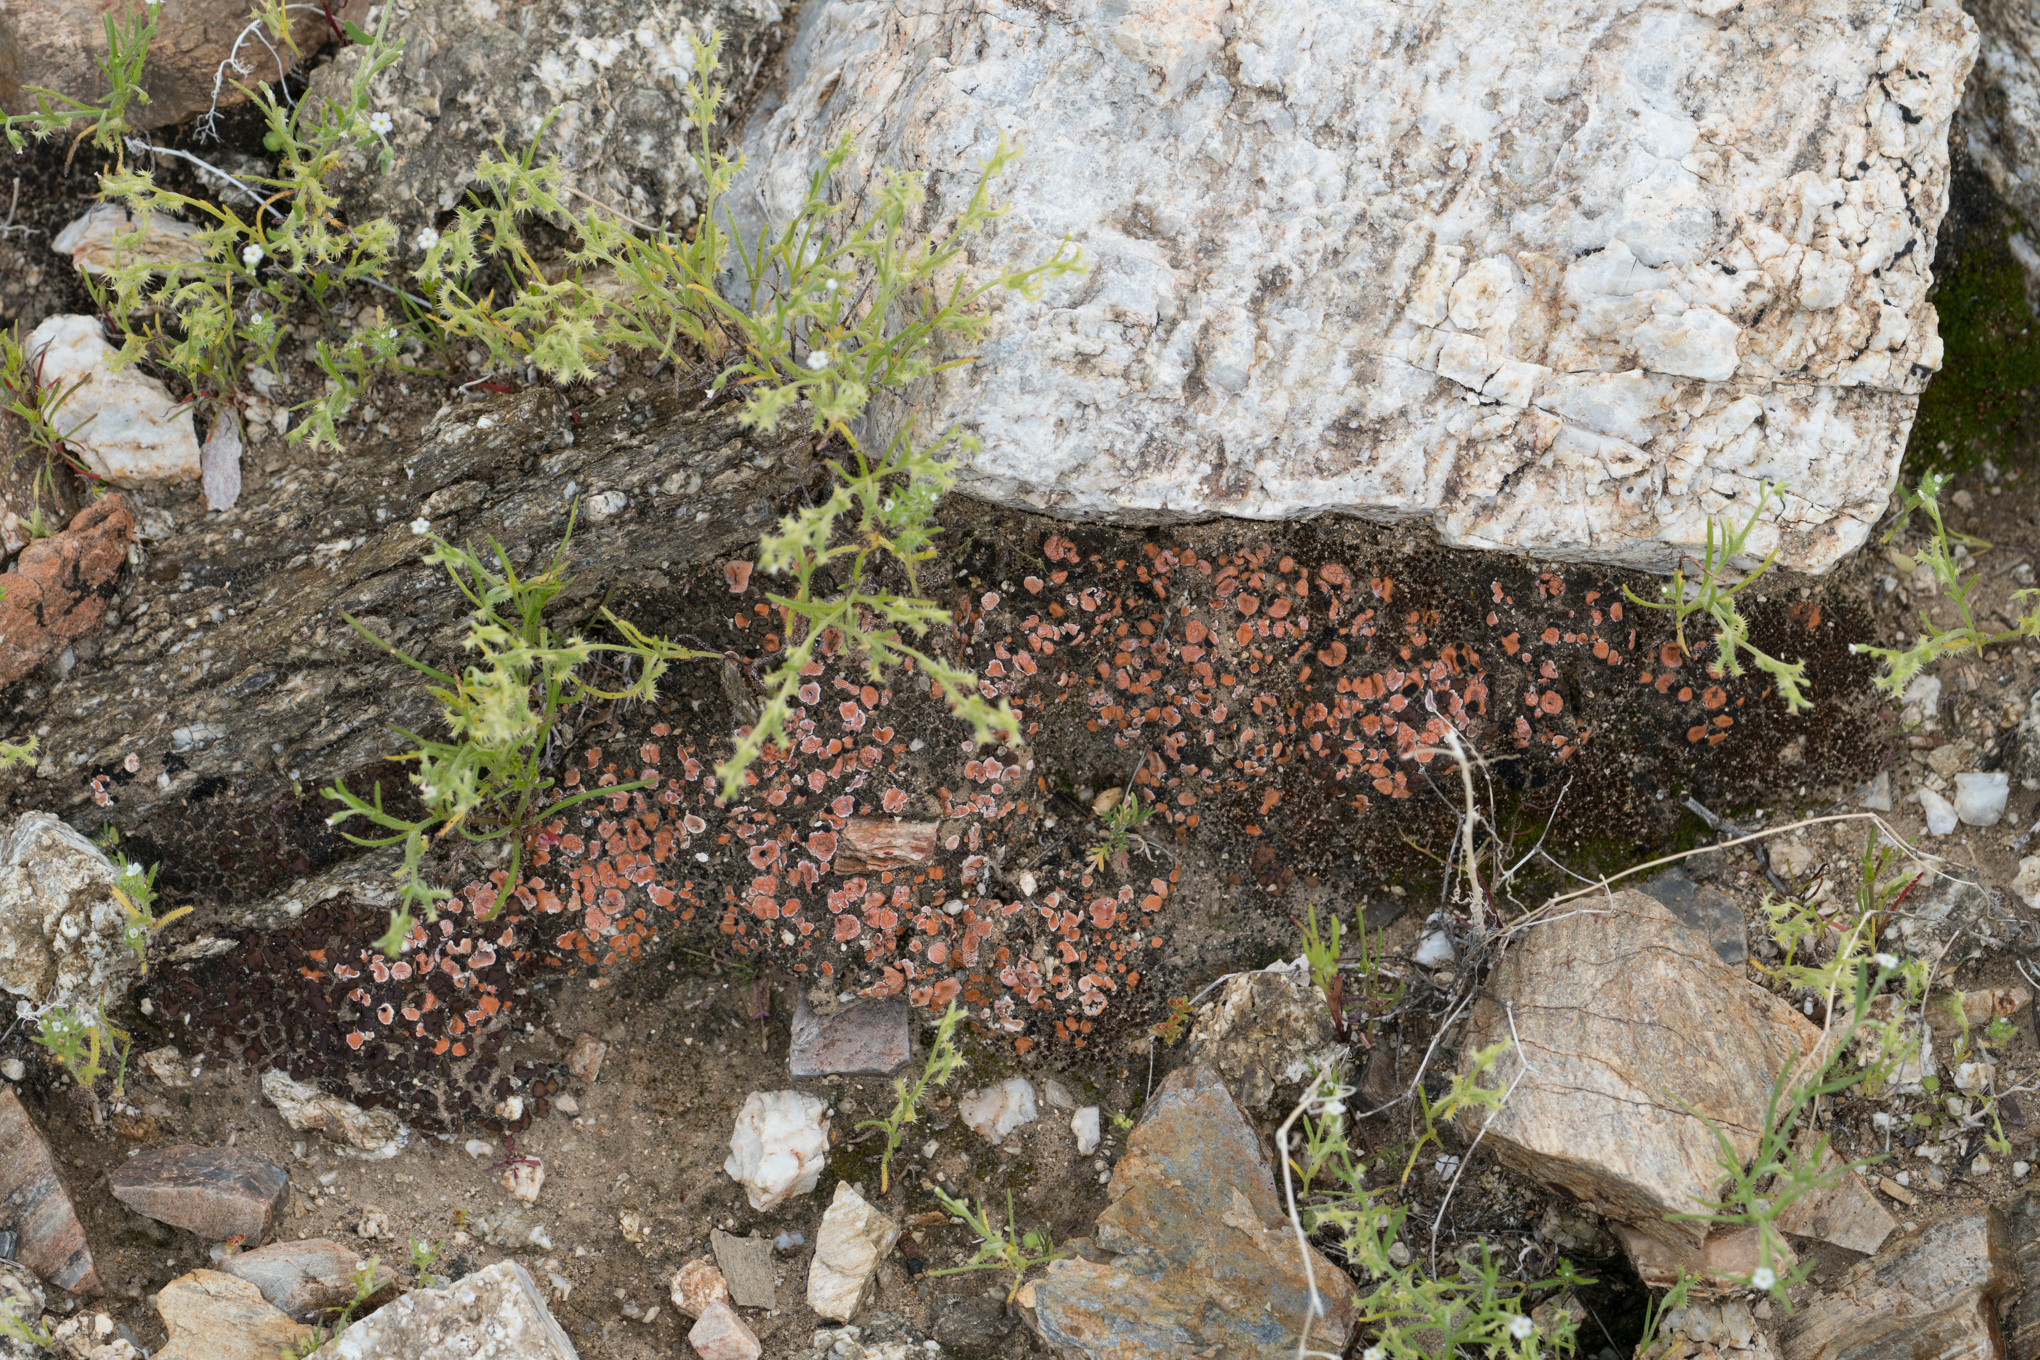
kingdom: Fungi
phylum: Ascomycota
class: Lecanoromycetes
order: Lecanorales
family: Psoraceae
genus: Psora
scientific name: Psora decipiens
